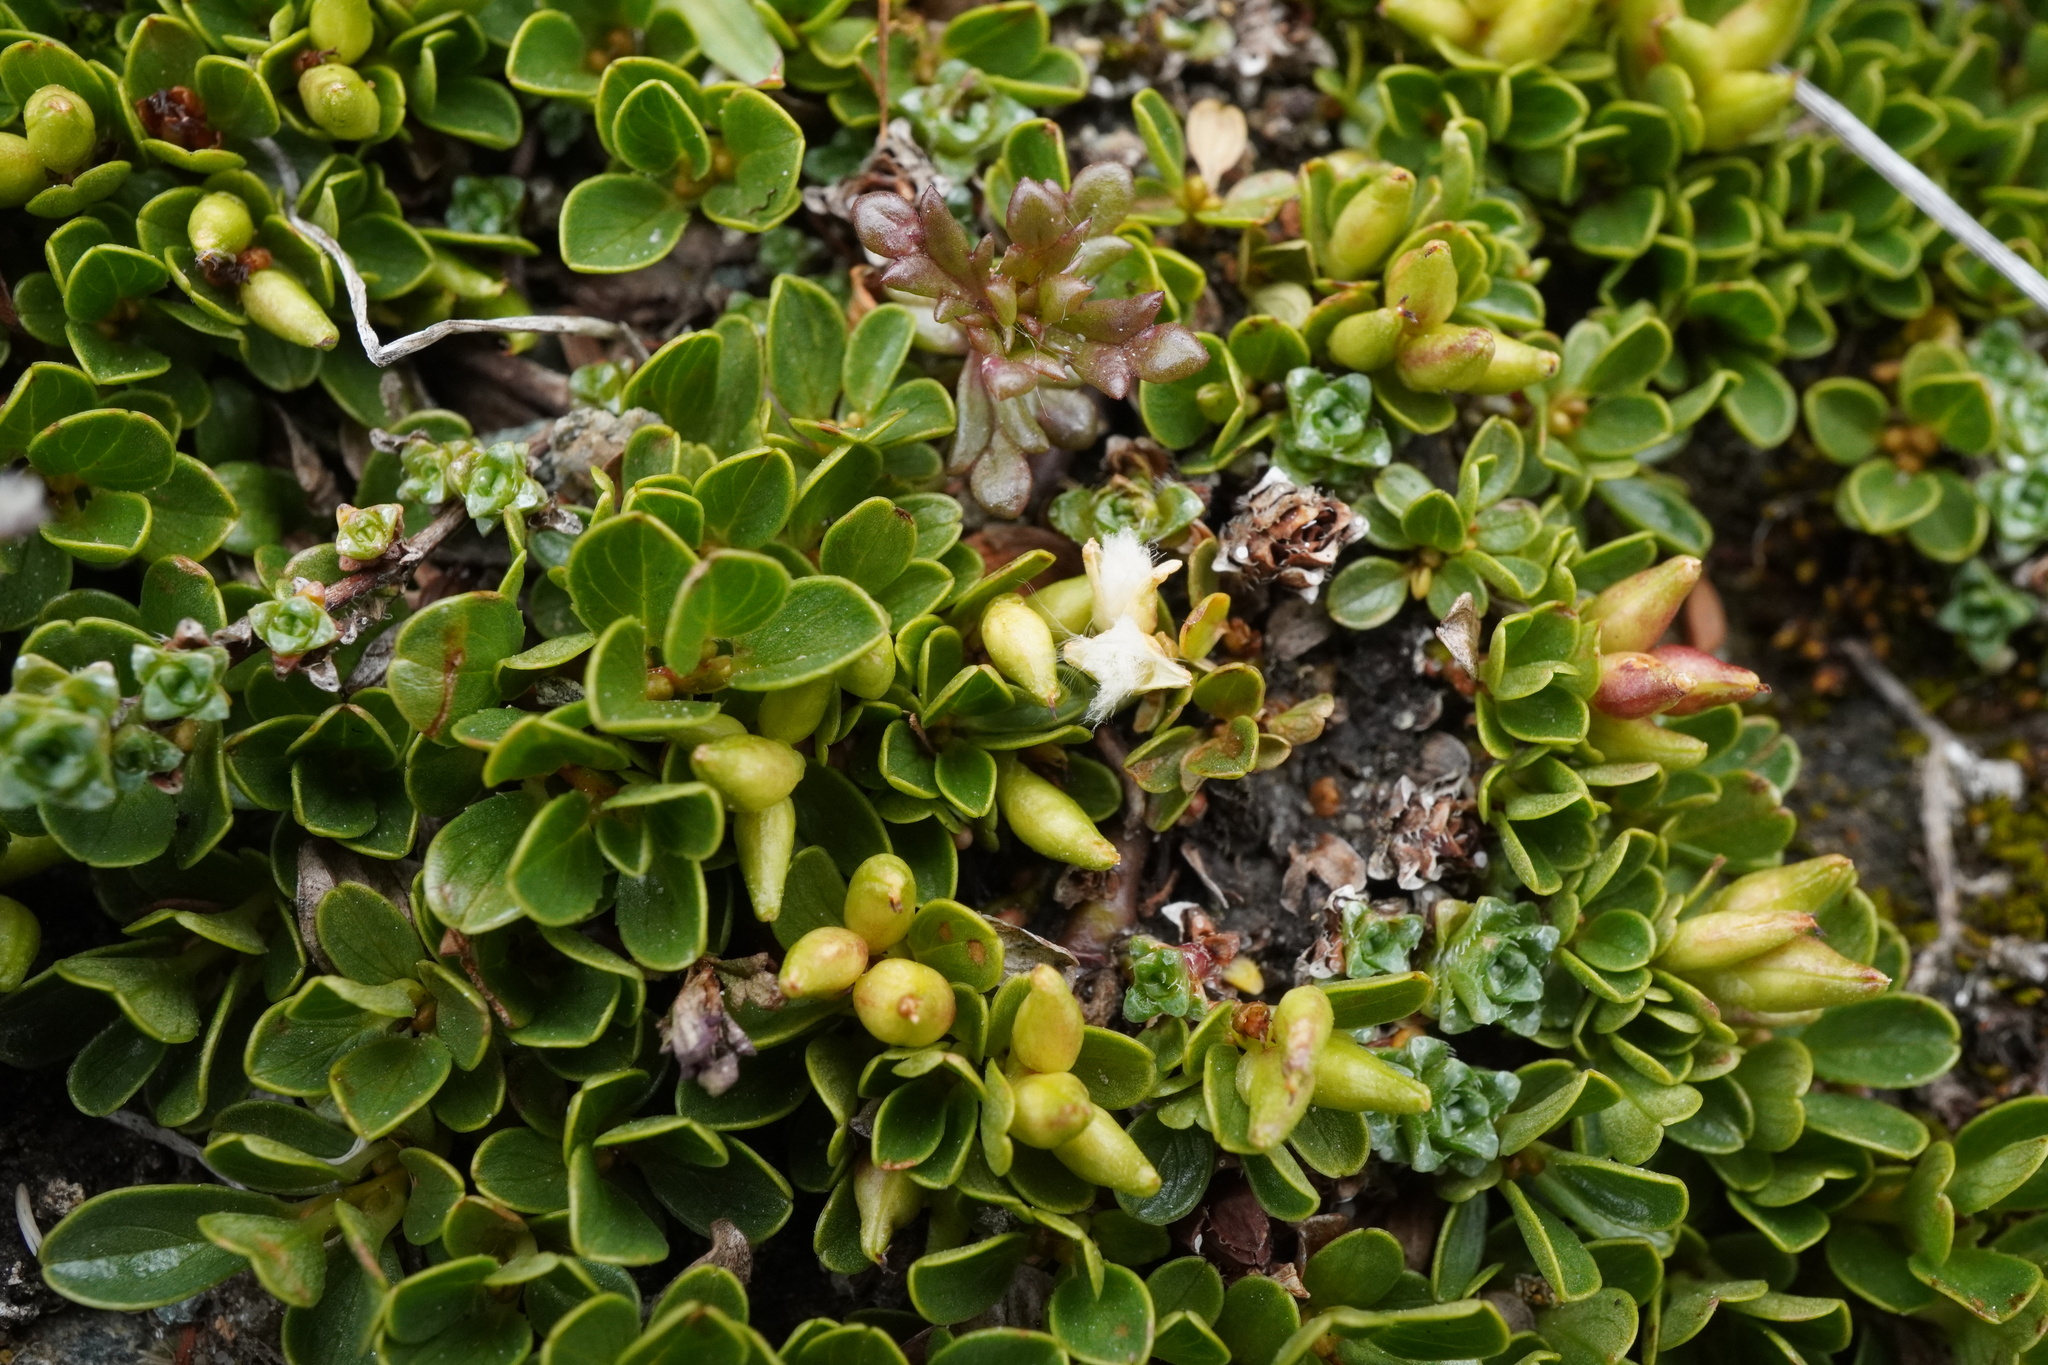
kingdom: Plantae
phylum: Tracheophyta
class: Magnoliopsida
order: Malpighiales
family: Salicaceae
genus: Salix
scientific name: Salix serpillifolia
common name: Thyme-leaf willow
